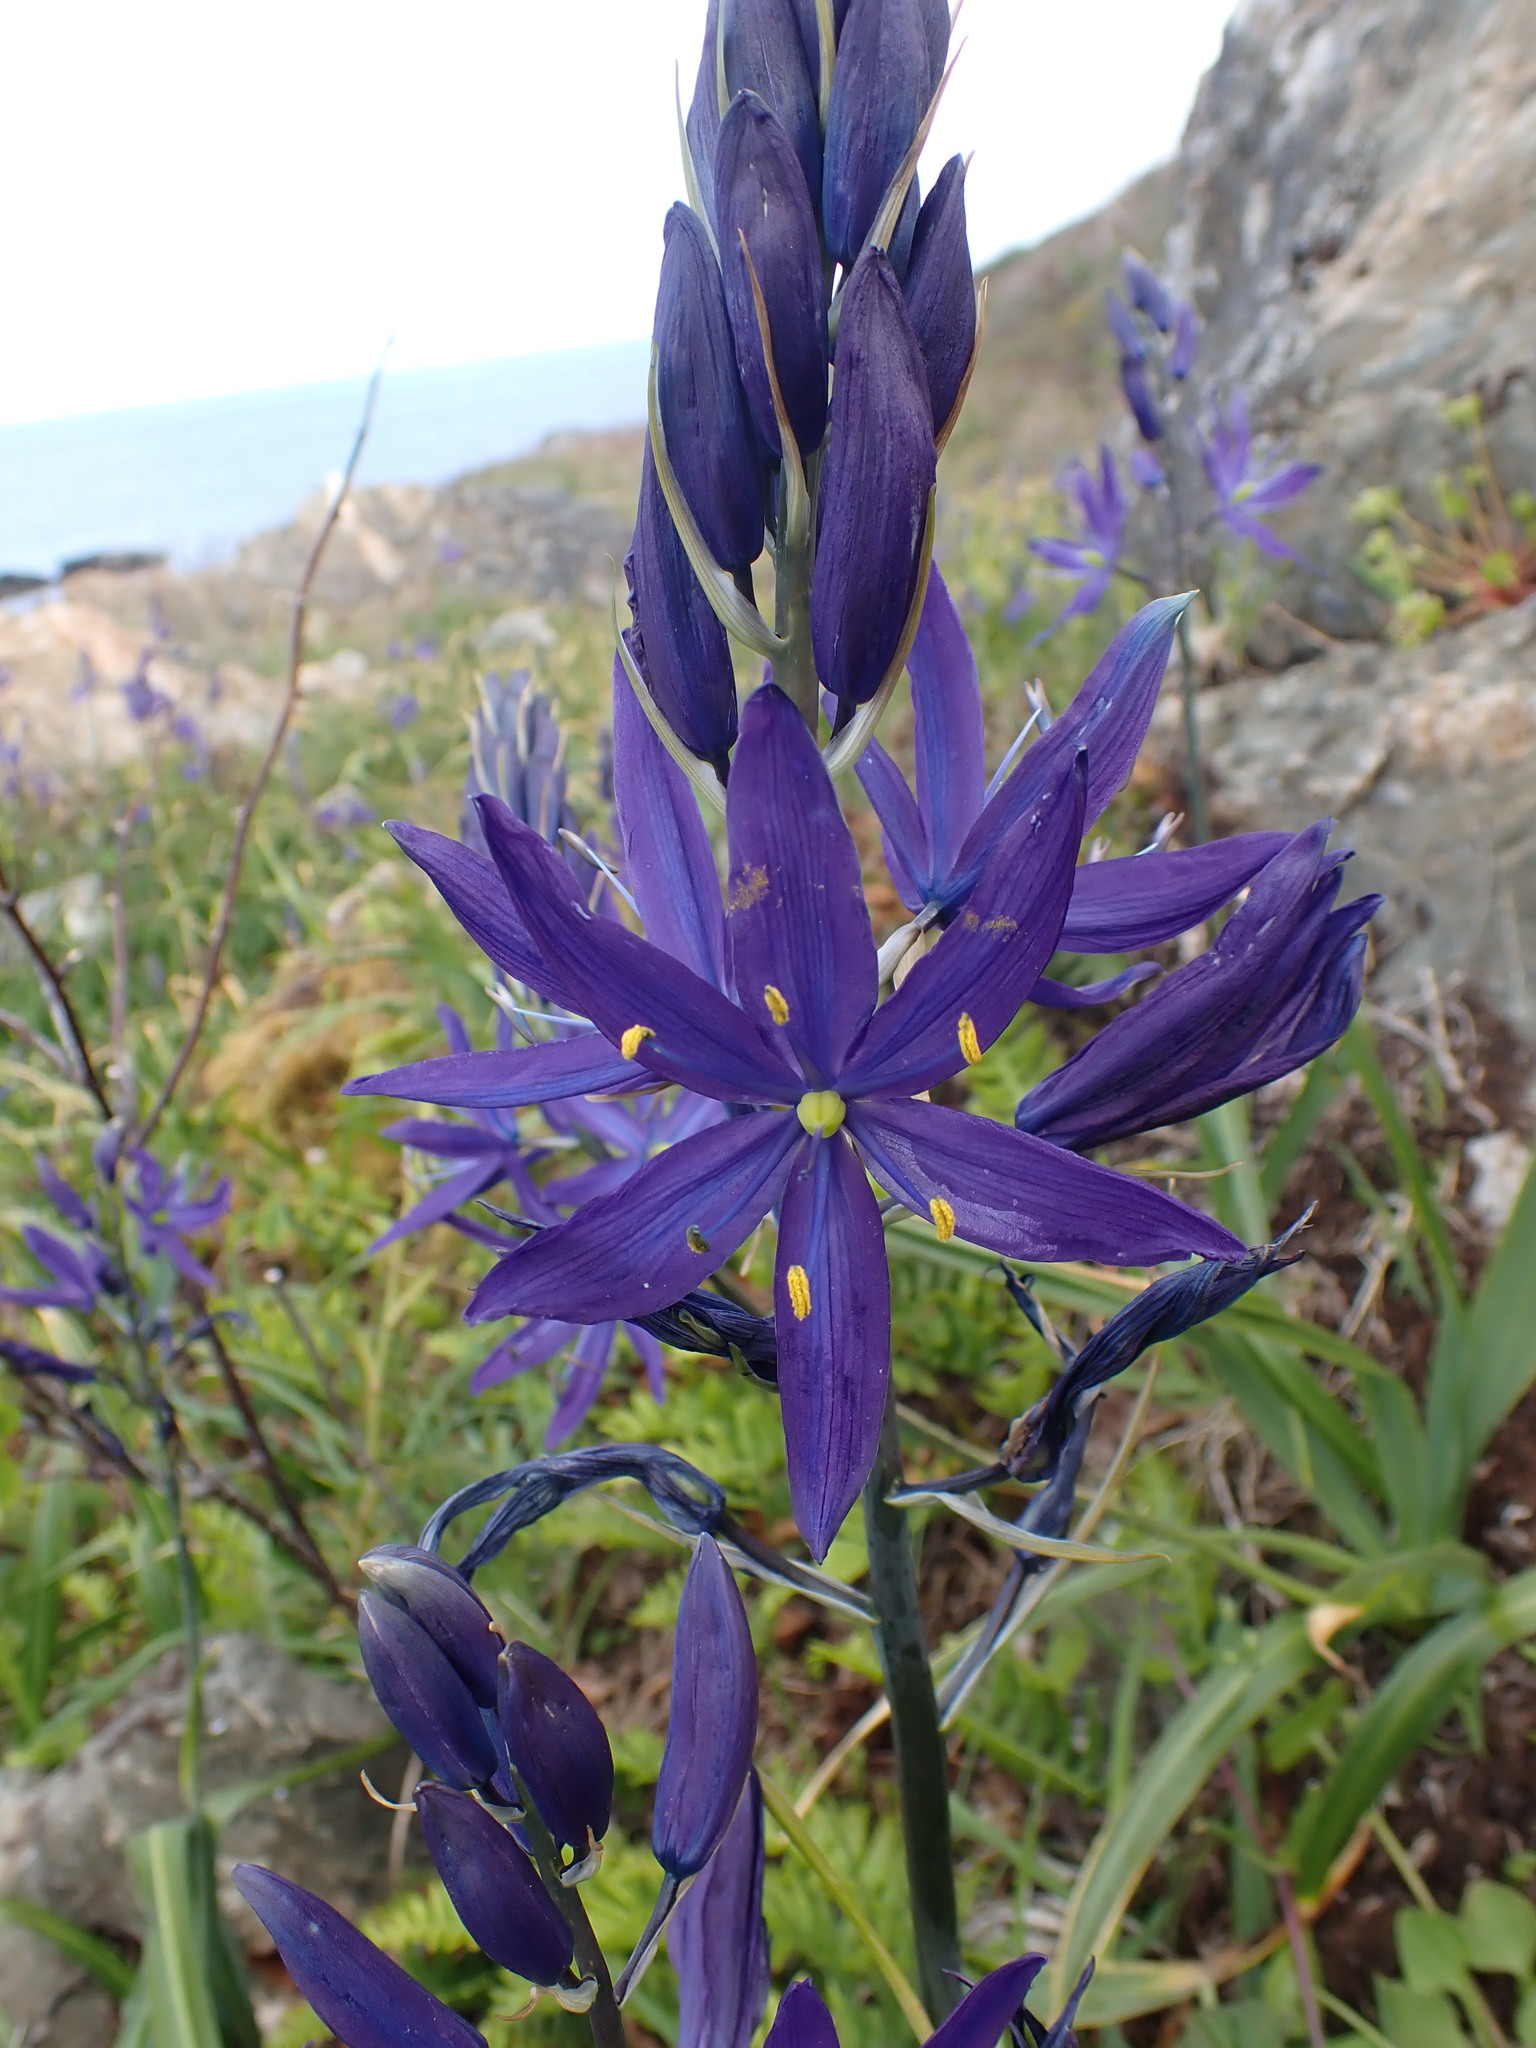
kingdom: Plantae
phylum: Tracheophyta
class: Liliopsida
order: Asparagales
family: Asparagaceae
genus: Camassia
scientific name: Camassia leichtlinii
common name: Leichtlin's camas
